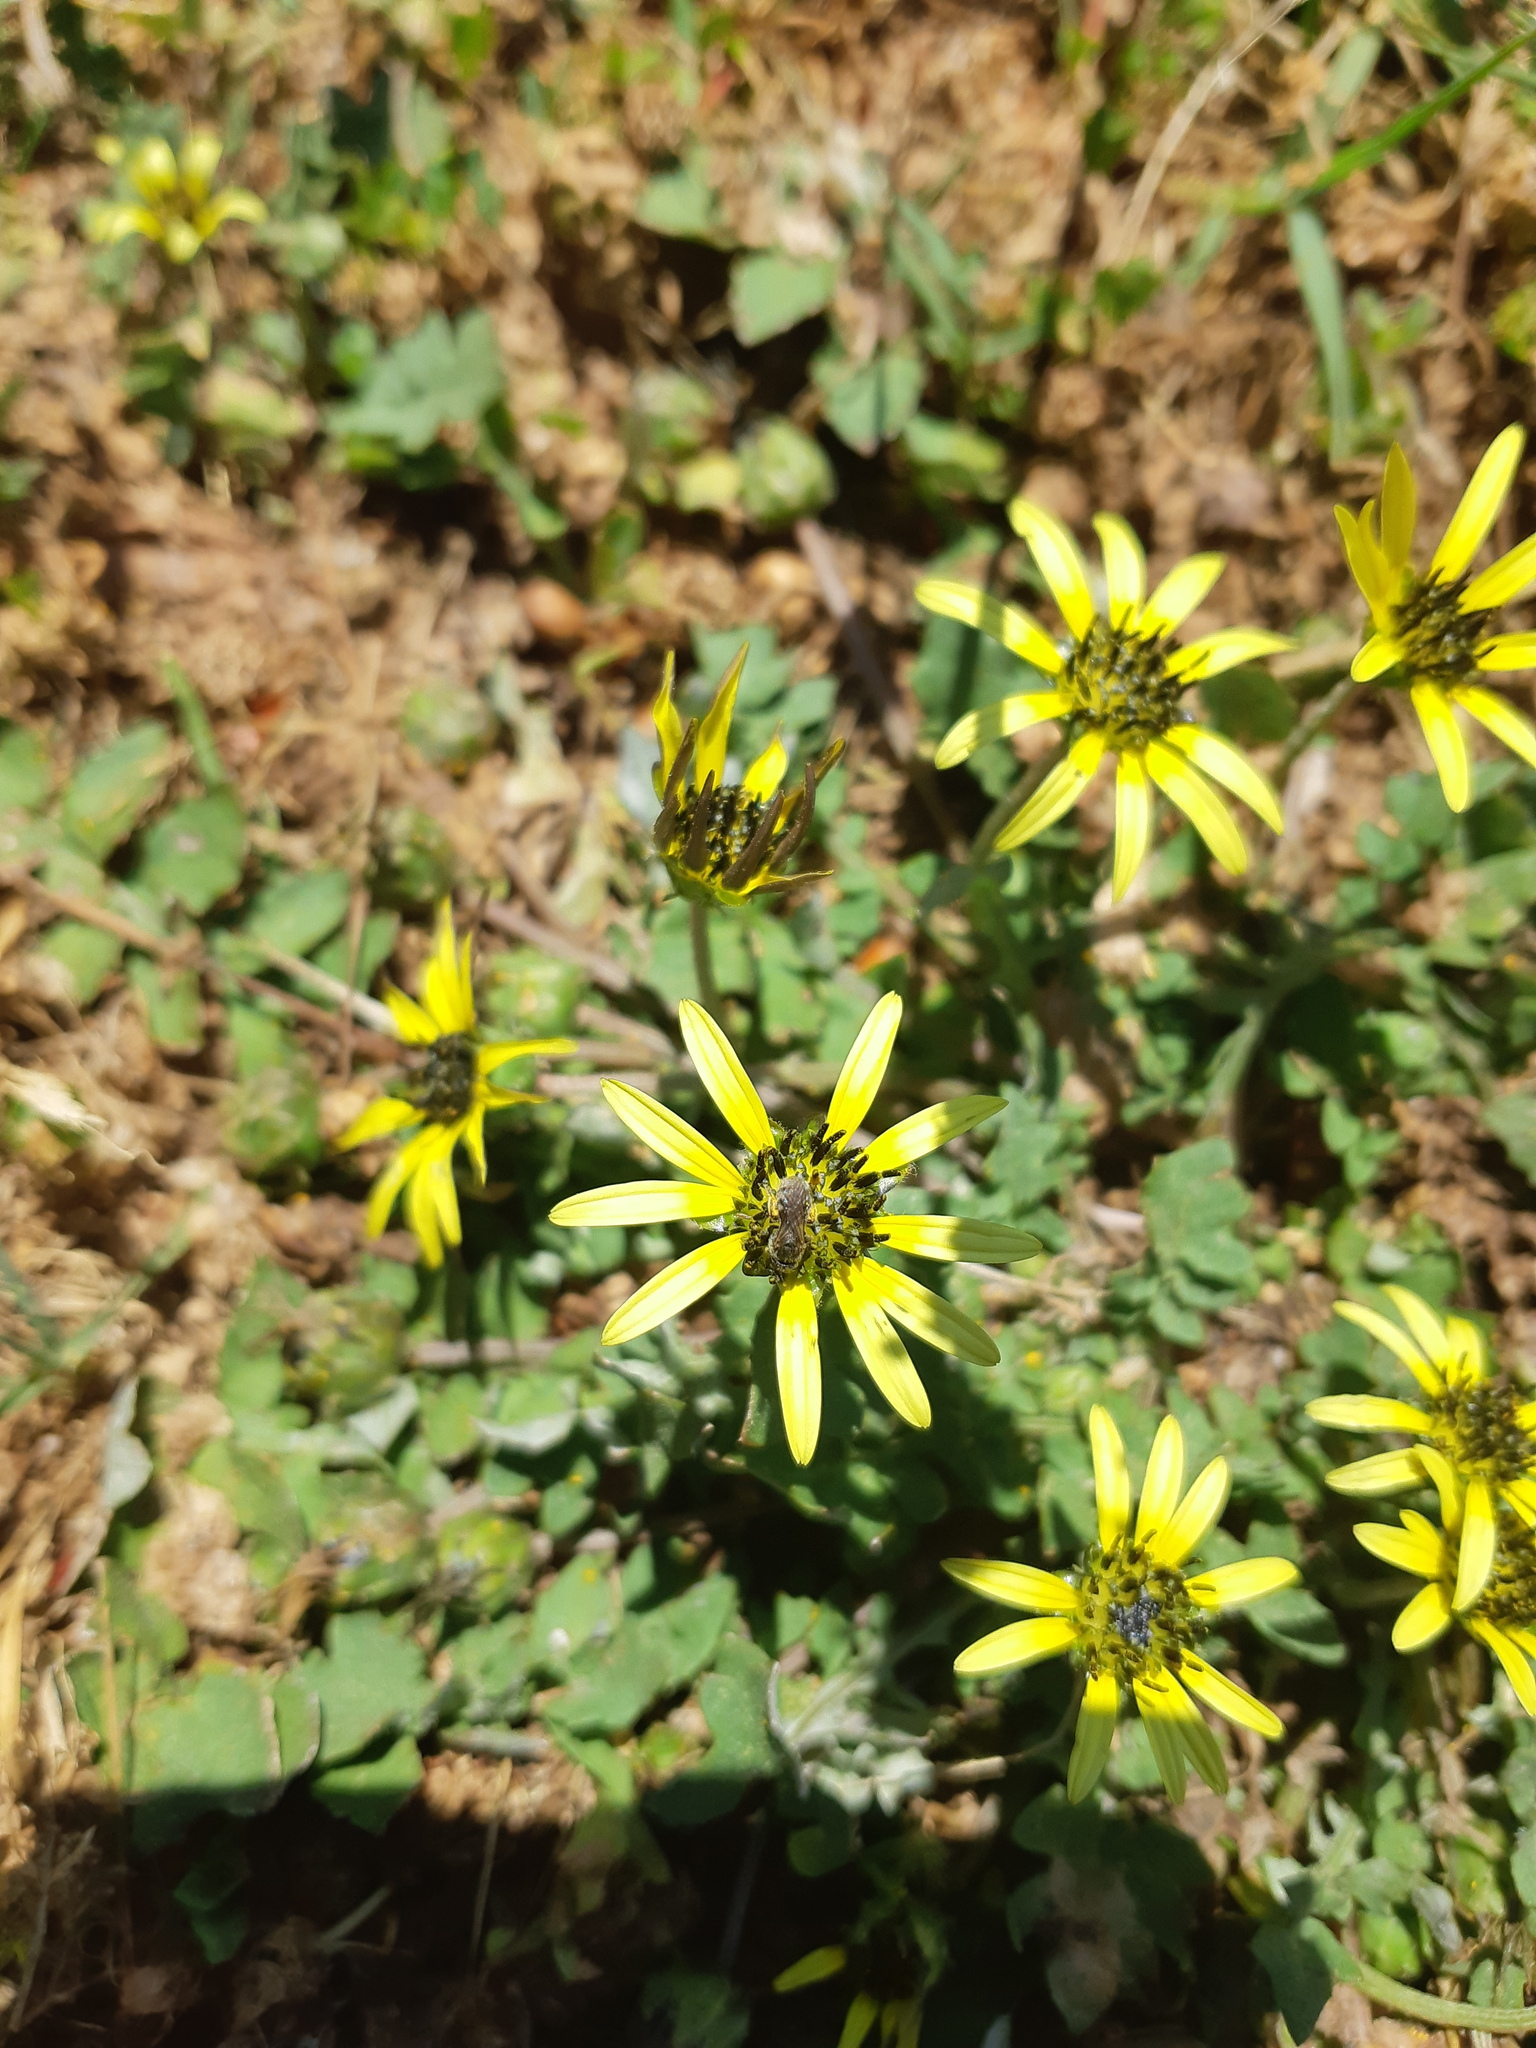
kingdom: Plantae
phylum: Tracheophyta
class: Magnoliopsida
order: Asterales
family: Asteraceae
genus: Arctotheca
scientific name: Arctotheca calendula
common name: Capeweed
